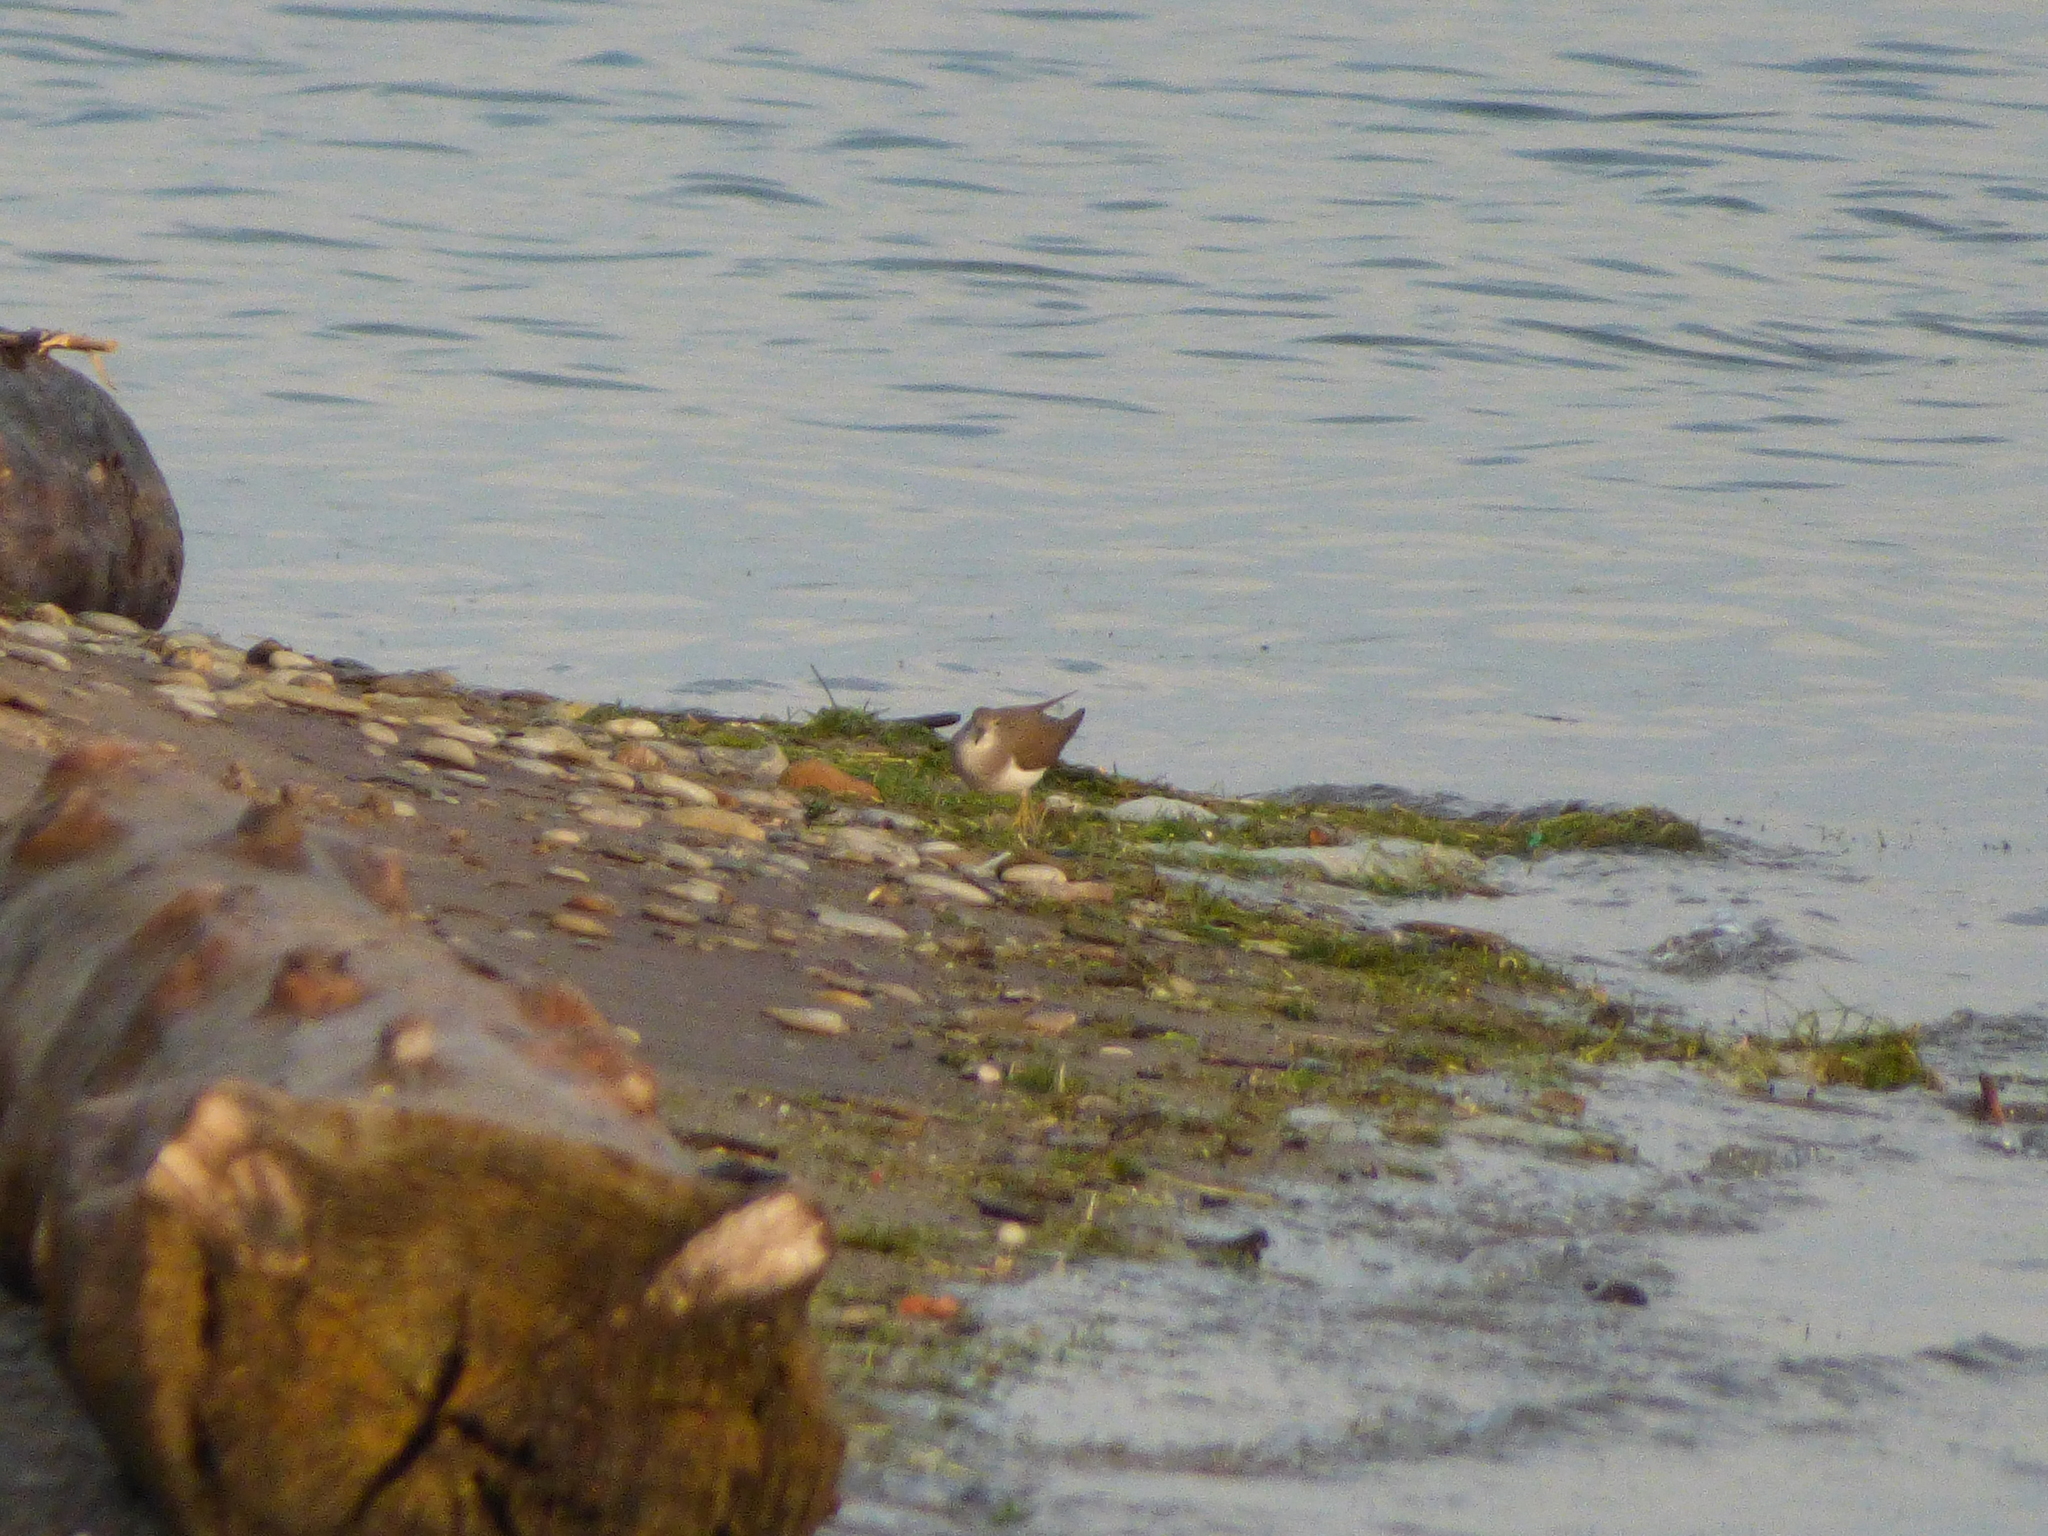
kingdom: Animalia
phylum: Chordata
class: Aves
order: Charadriiformes
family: Scolopacidae
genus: Actitis
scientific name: Actitis macularius
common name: Spotted sandpiper
